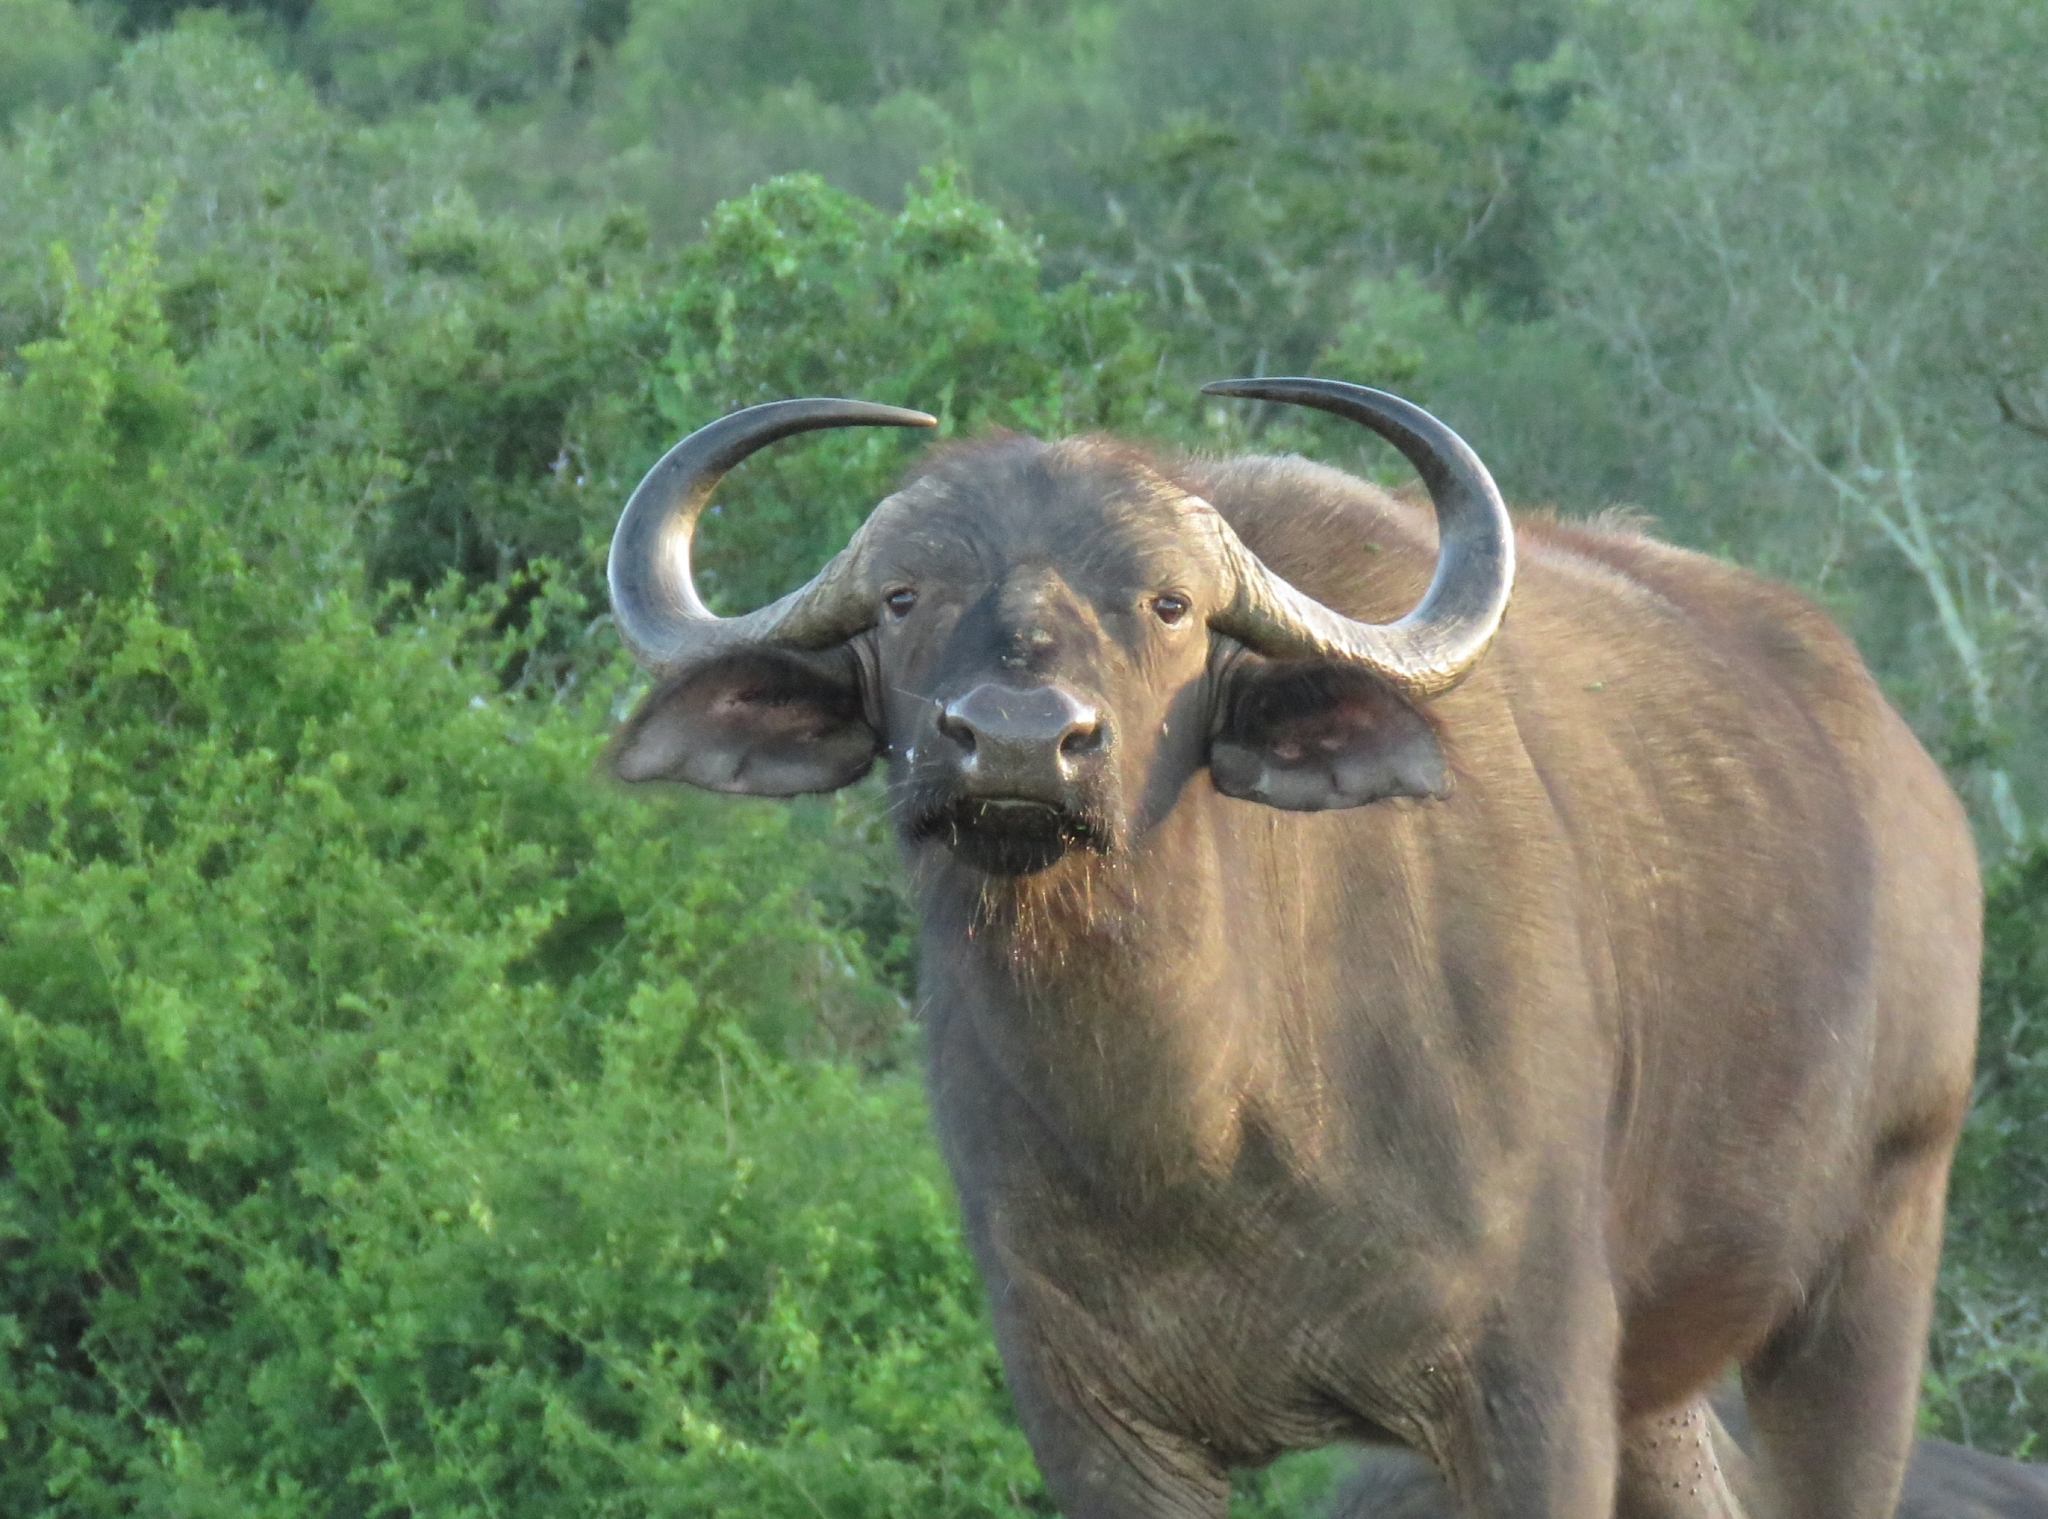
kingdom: Animalia
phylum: Chordata
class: Mammalia
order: Artiodactyla
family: Bovidae
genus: Syncerus
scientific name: Syncerus caffer
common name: African buffalo
